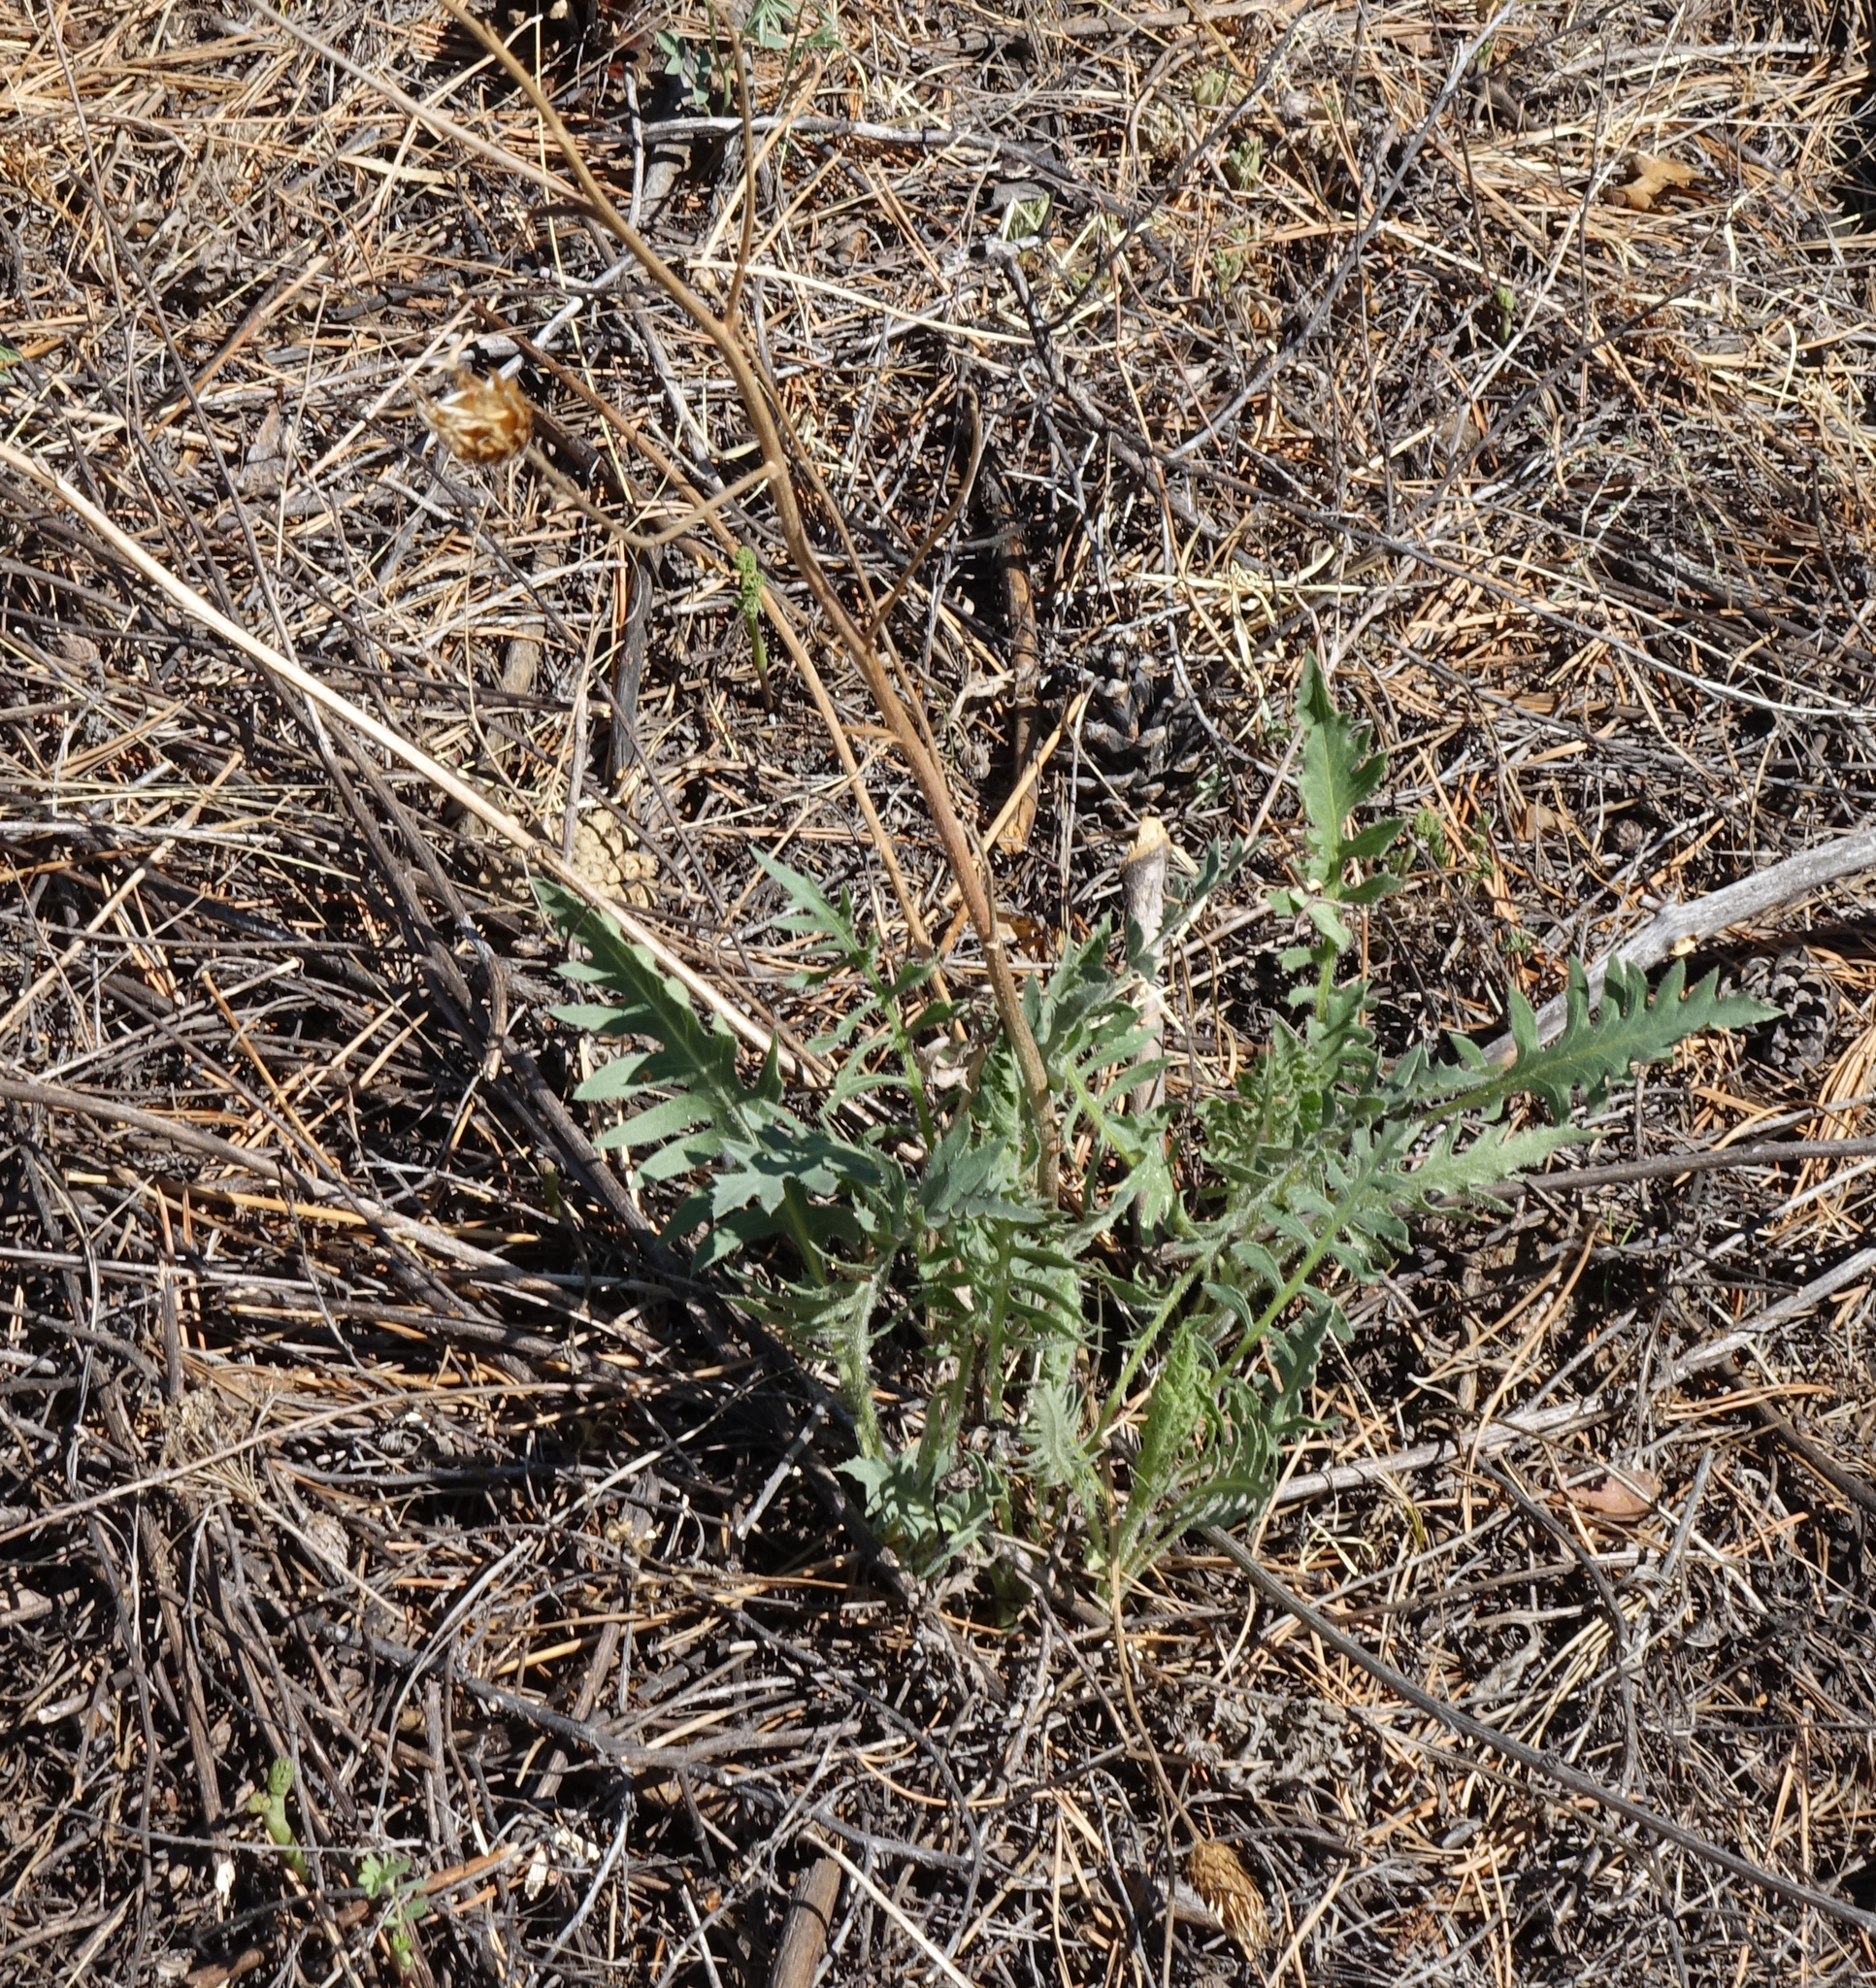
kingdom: Plantae
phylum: Tracheophyta
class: Magnoliopsida
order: Fabales
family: Fabaceae
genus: Oxytropis
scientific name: Oxytropis strobilacea
